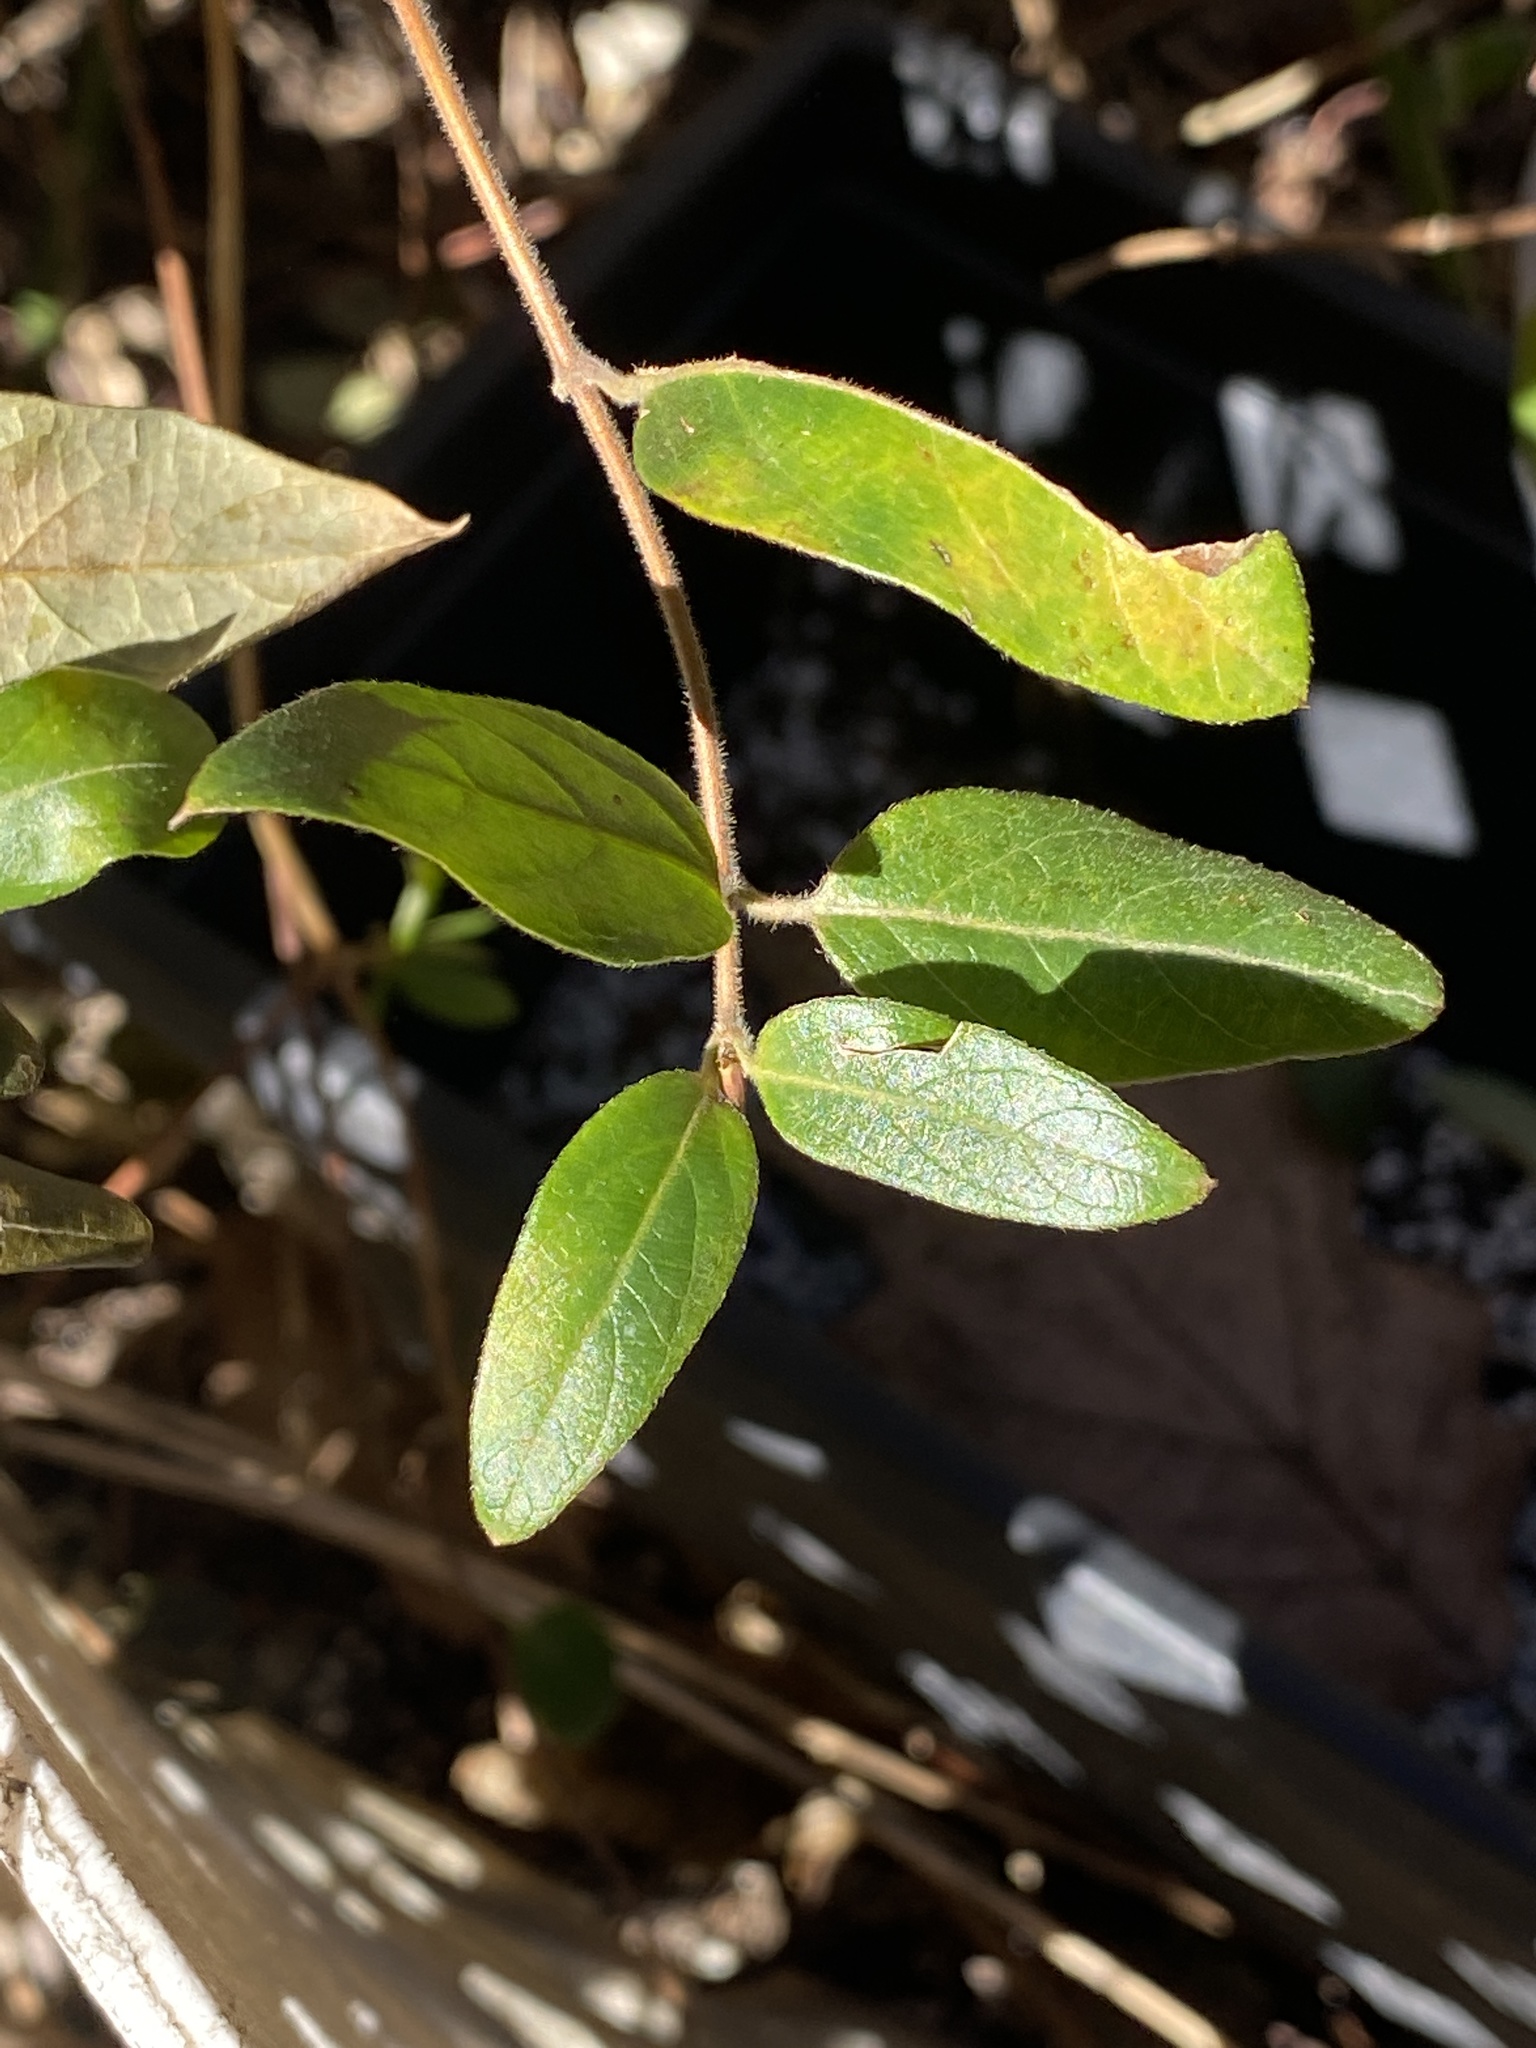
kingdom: Plantae
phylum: Tracheophyta
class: Magnoliopsida
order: Dipsacales
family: Caprifoliaceae
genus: Lonicera
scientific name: Lonicera japonica
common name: Japanese honeysuckle
